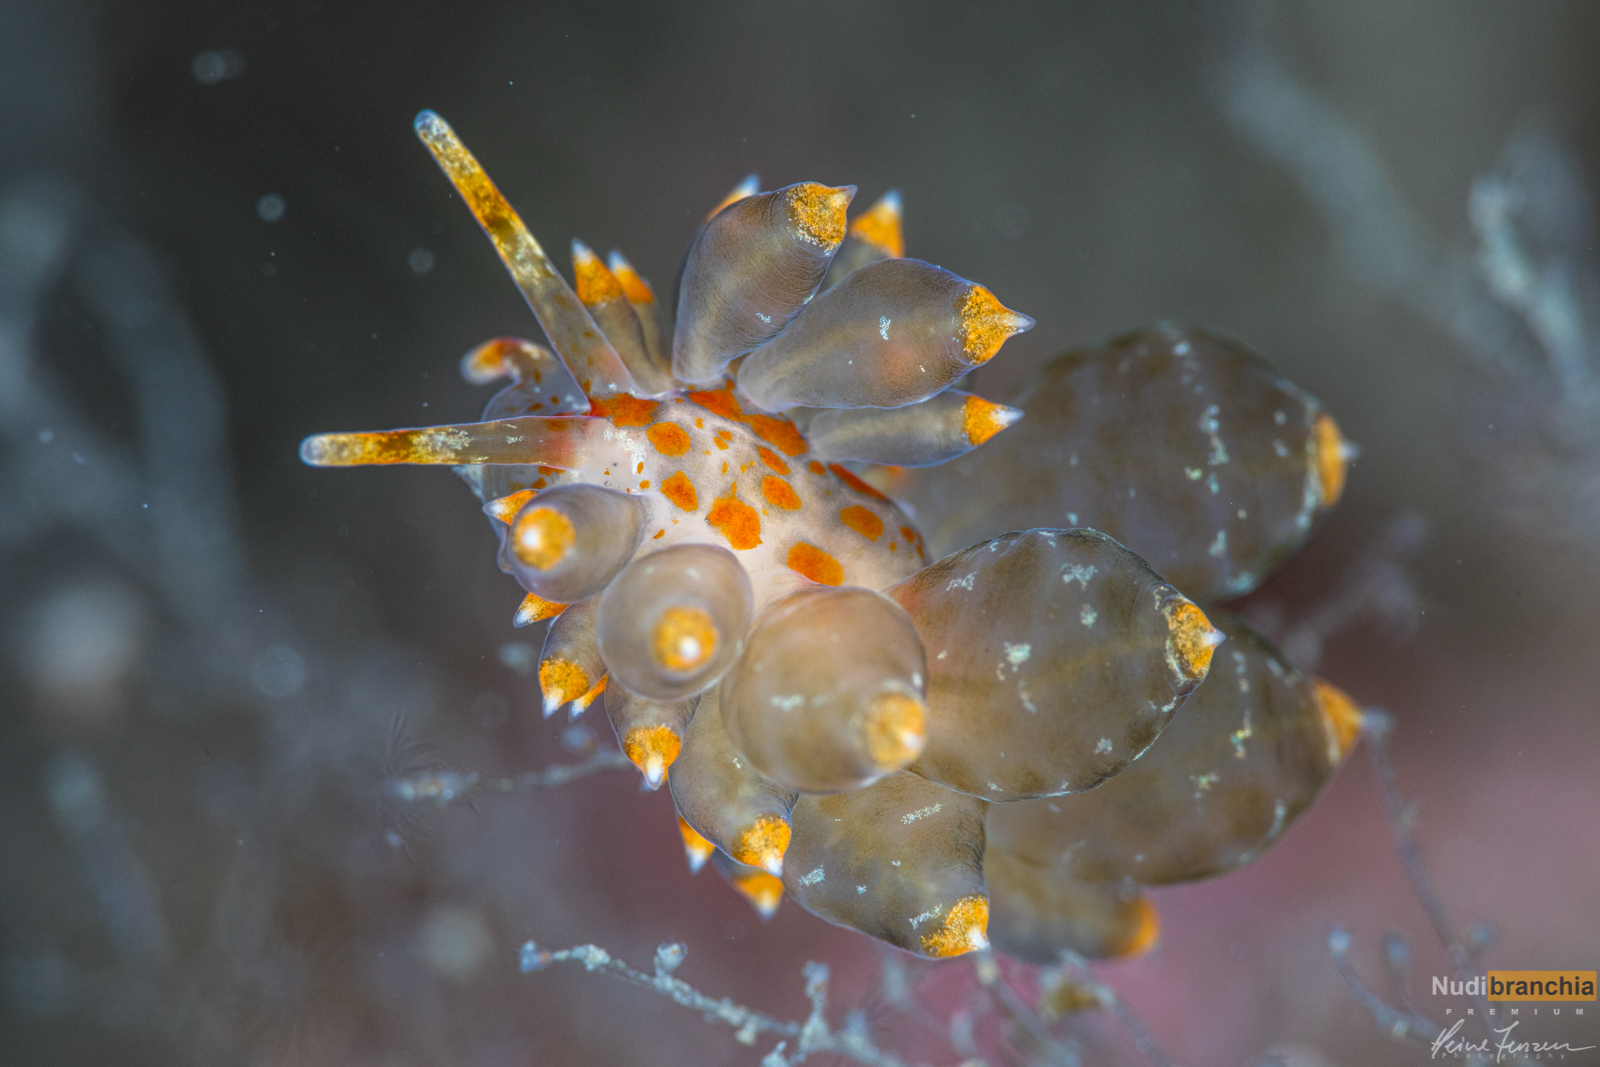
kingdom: Animalia
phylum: Mollusca
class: Gastropoda
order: Nudibranchia
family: Eubranchidae
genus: Amphorina
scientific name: Amphorina andra
